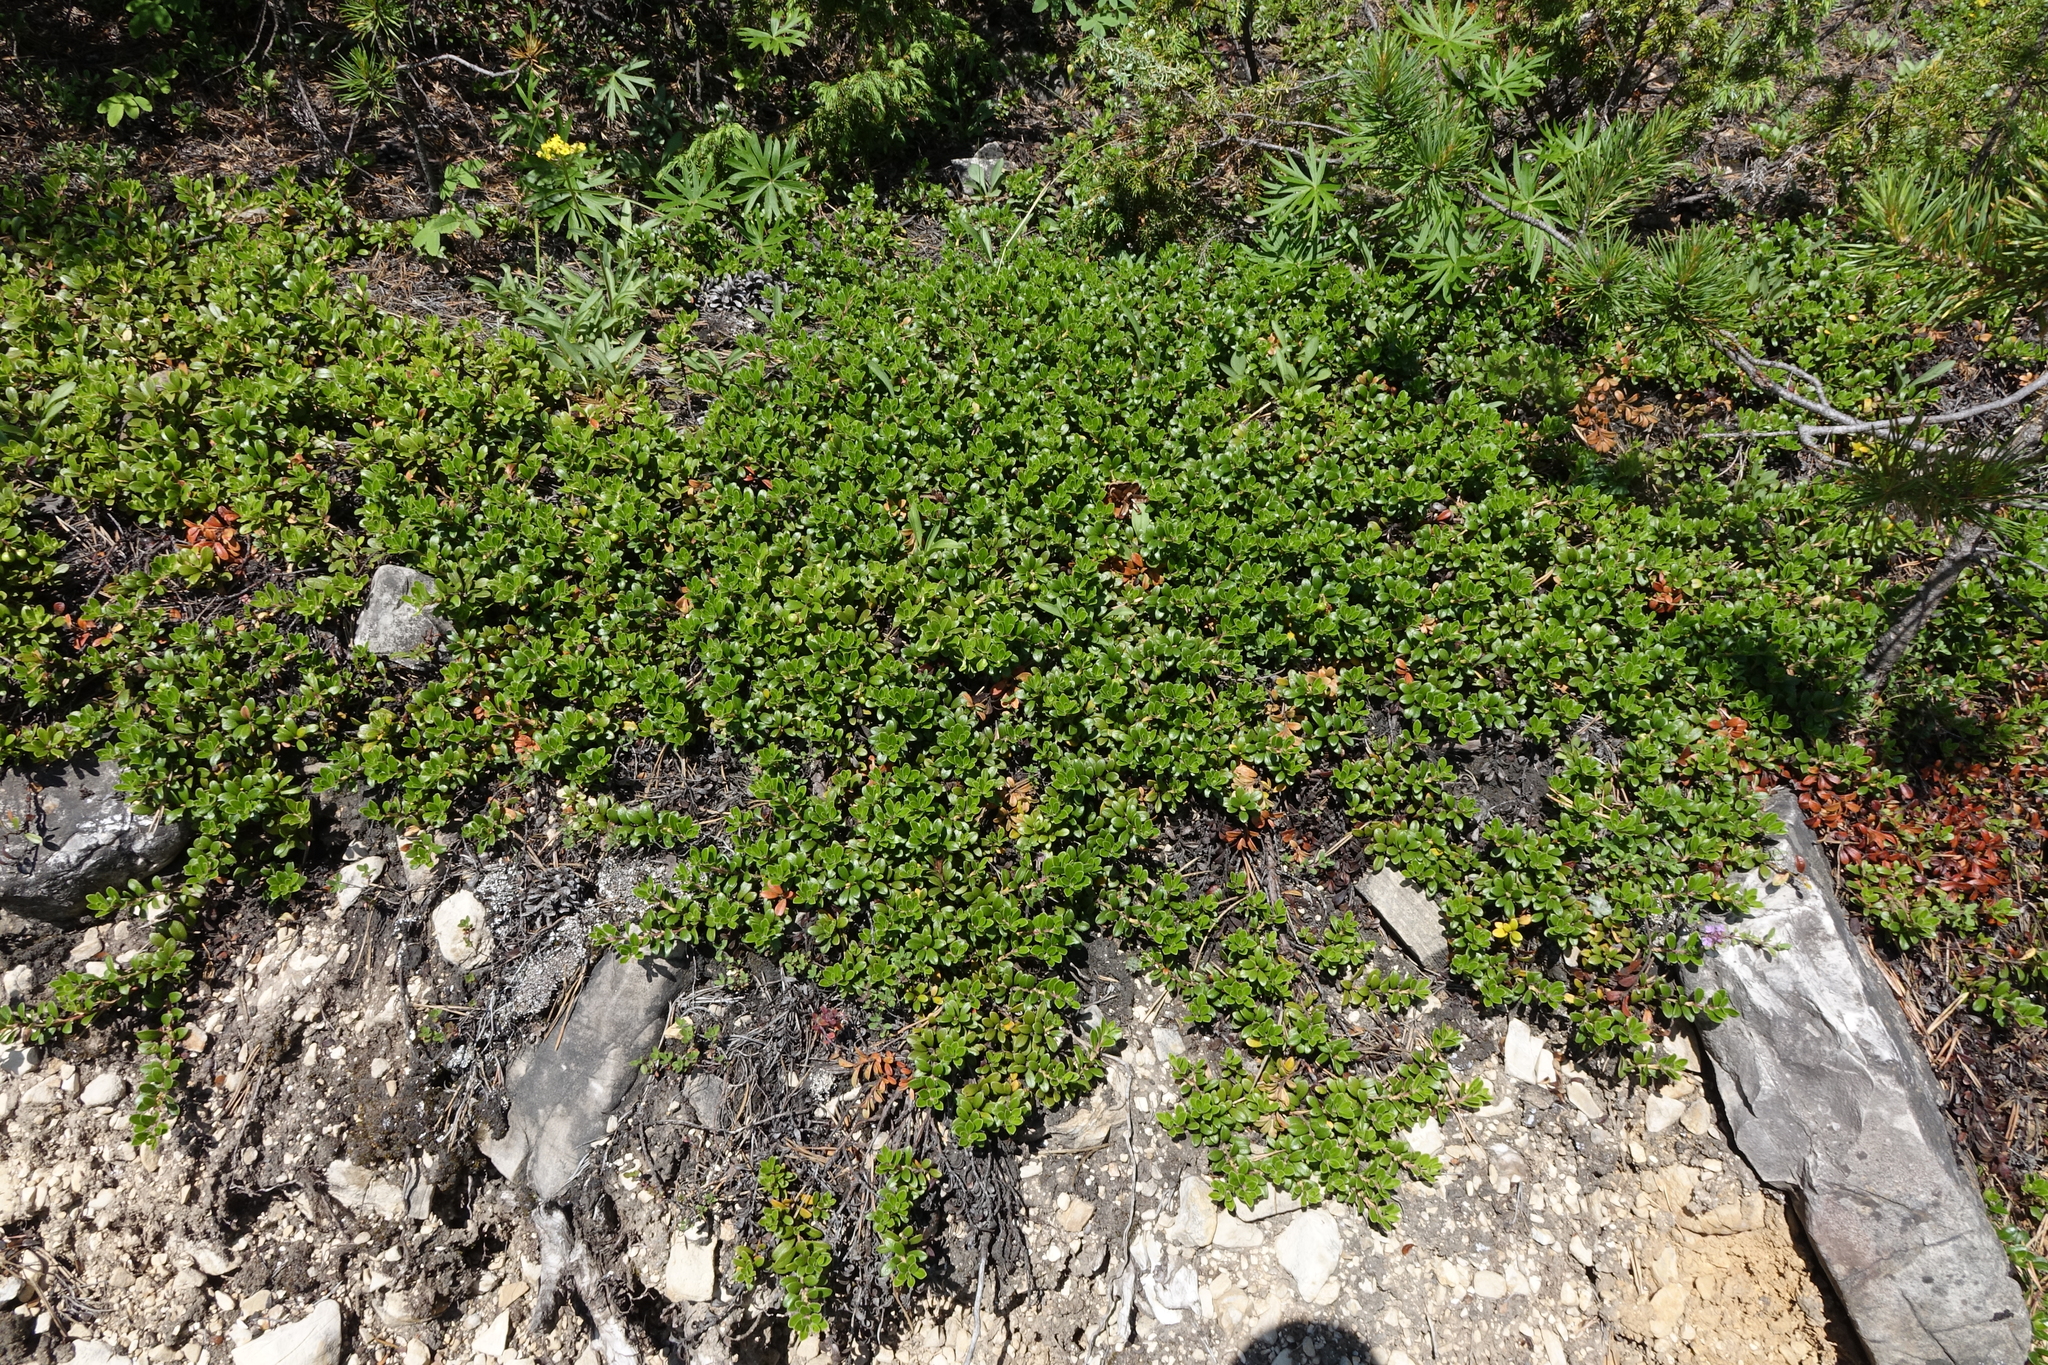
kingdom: Plantae
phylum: Tracheophyta
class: Magnoliopsida
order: Ericales
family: Ericaceae
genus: Arctostaphylos
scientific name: Arctostaphylos uva-ursi
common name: Bearberry
